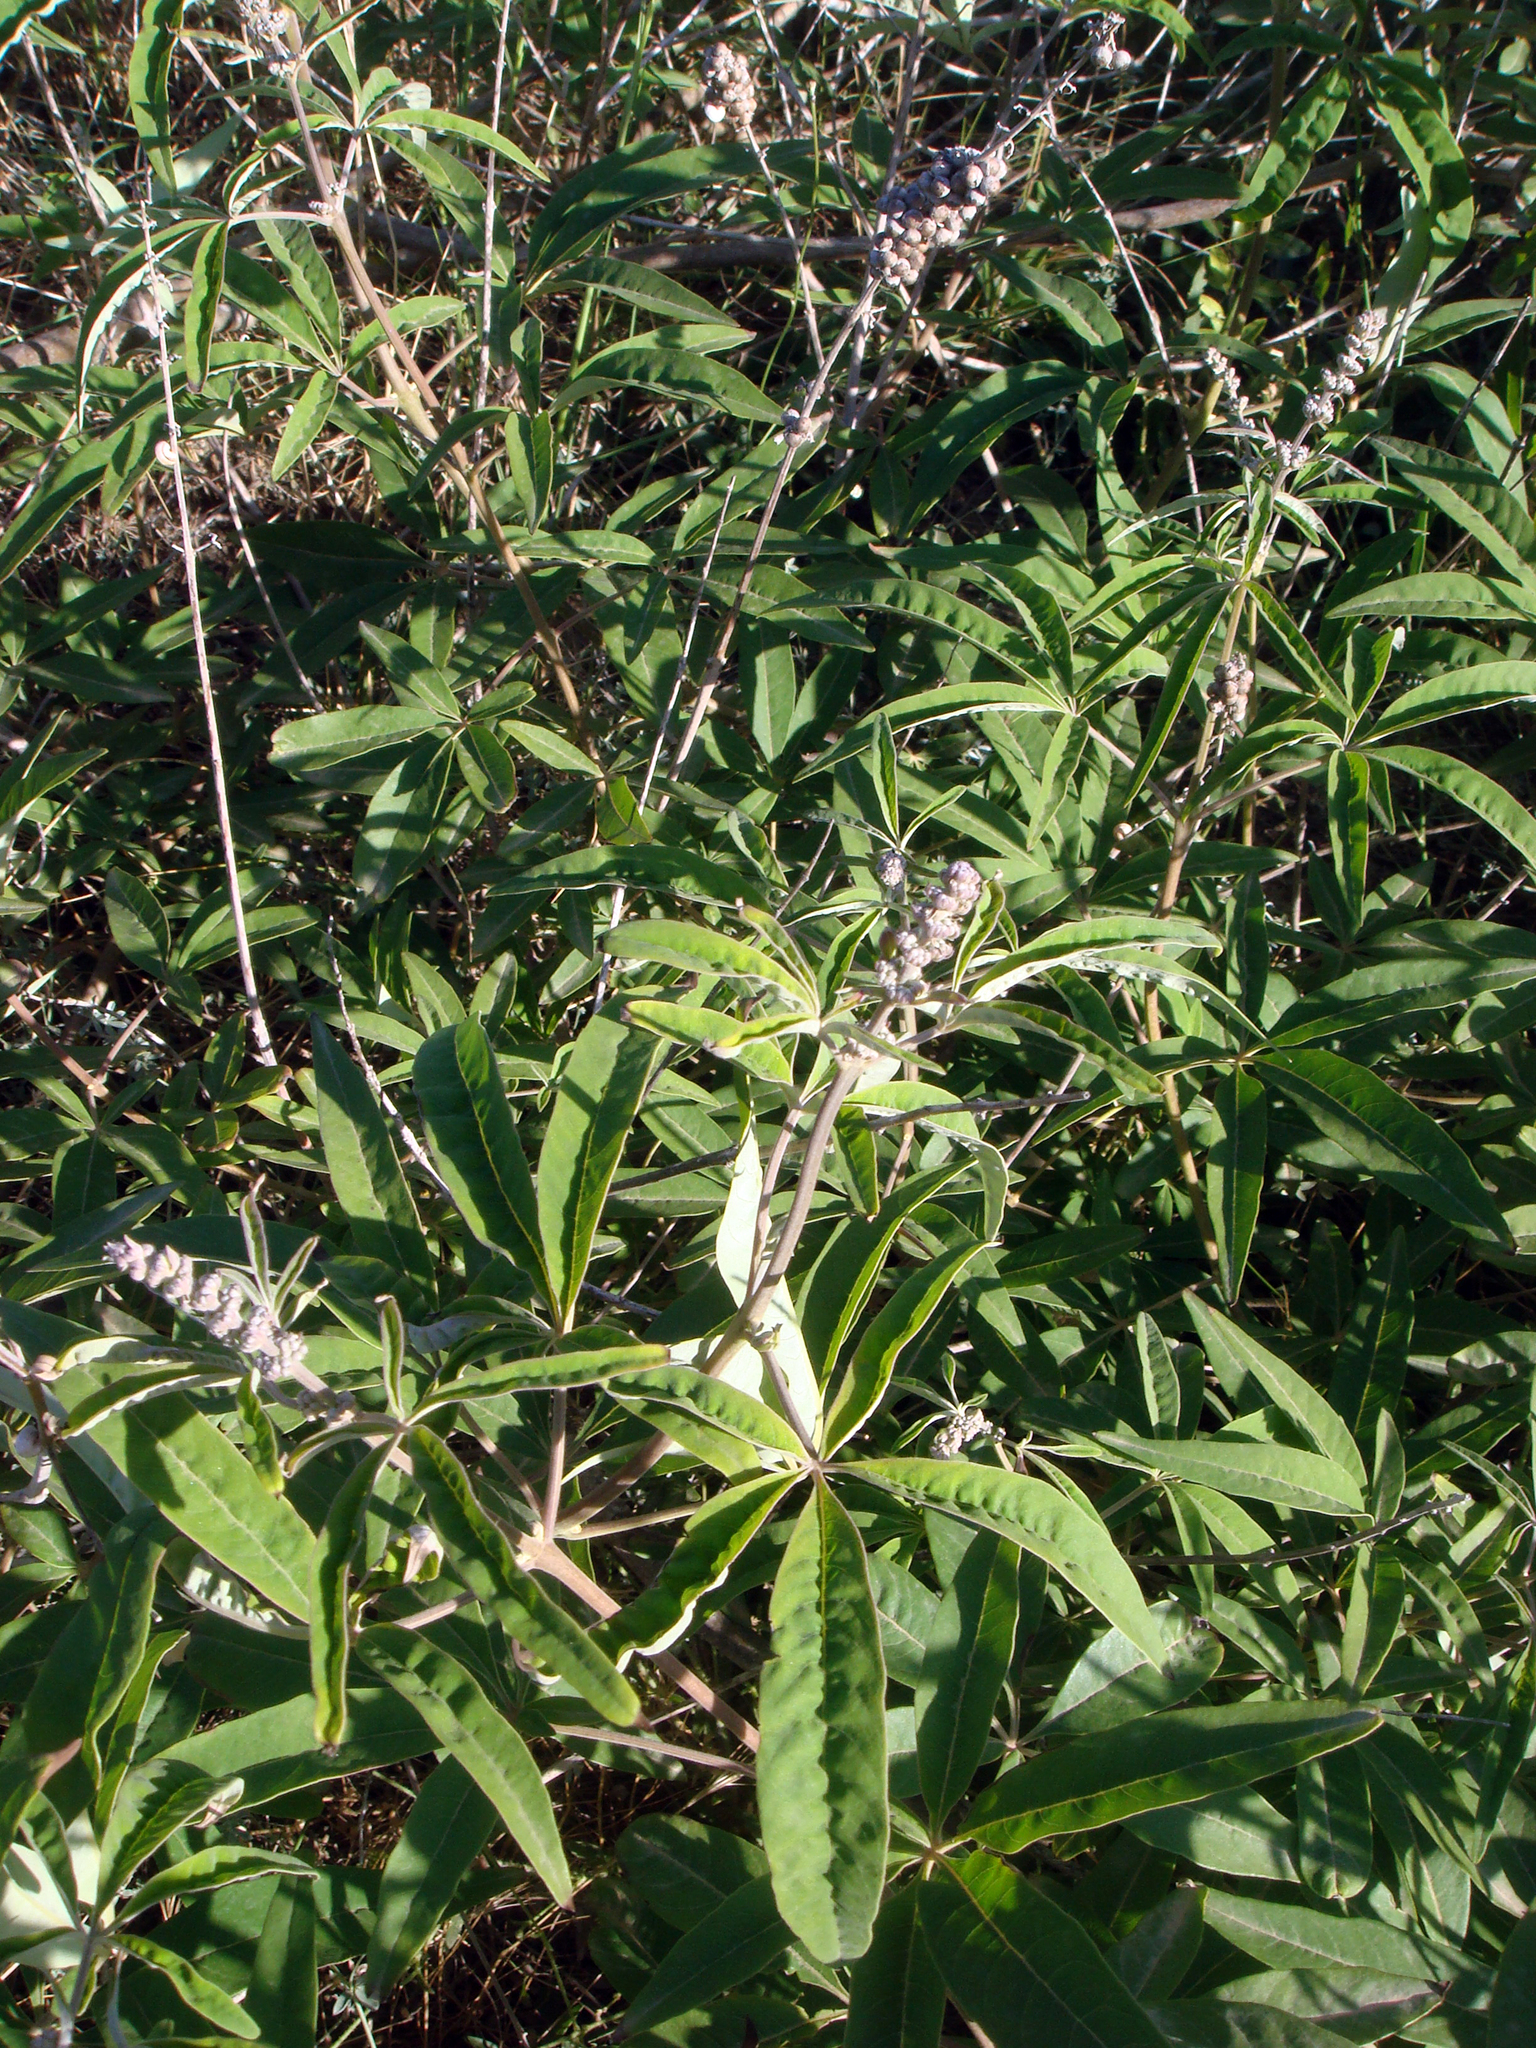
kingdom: Plantae
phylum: Tracheophyta
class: Magnoliopsida
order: Lamiales
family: Lamiaceae
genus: Vitex
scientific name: Vitex agnus-castus
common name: Chasteberry
